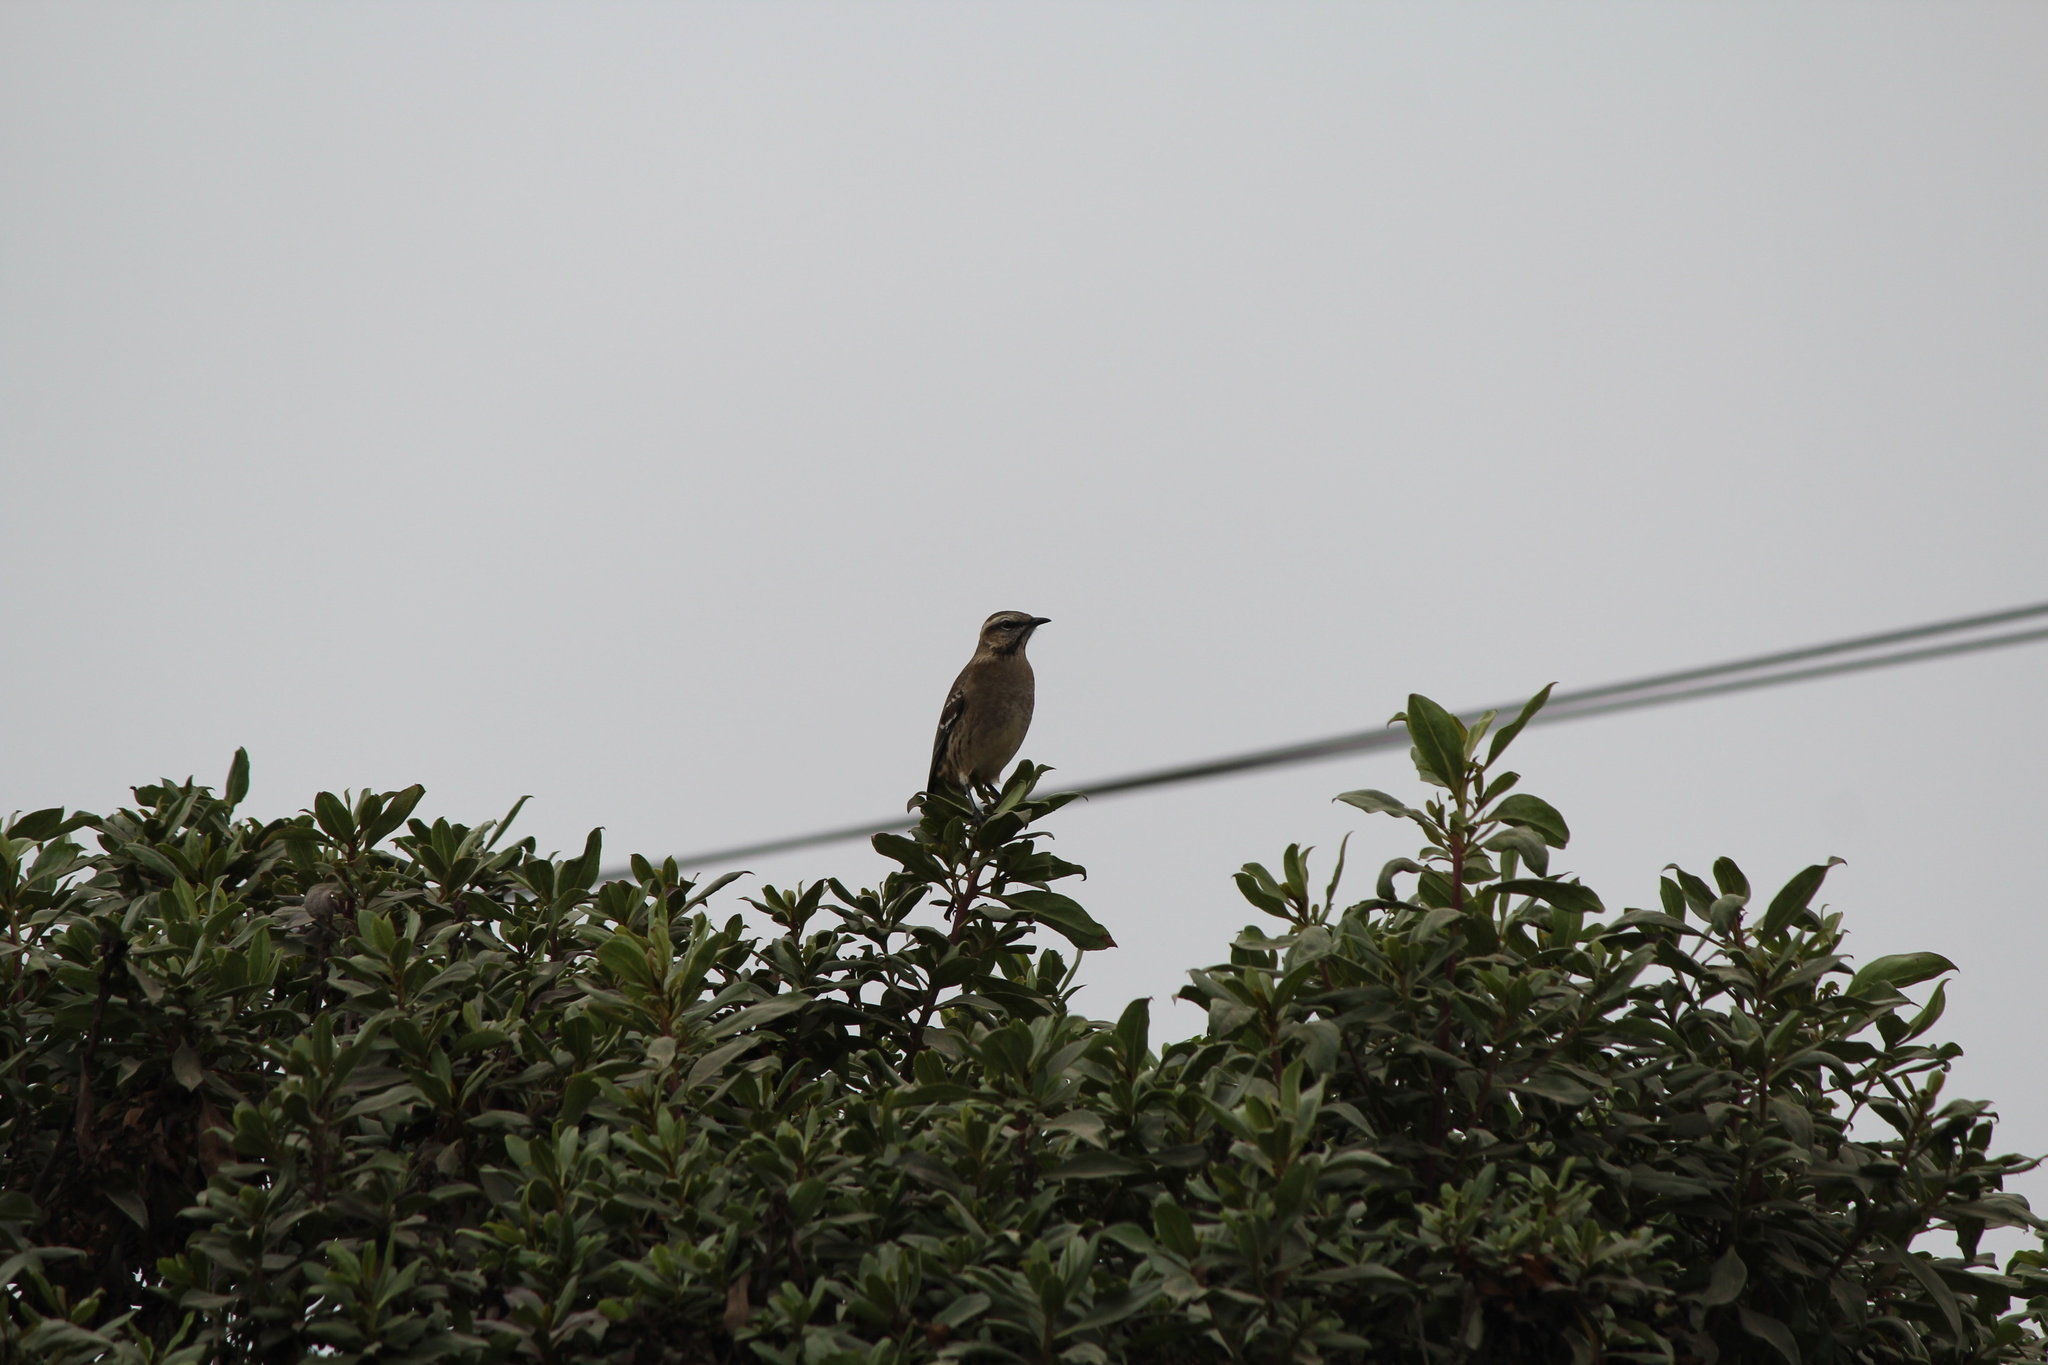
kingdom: Animalia
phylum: Chordata
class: Aves
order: Passeriformes
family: Mimidae
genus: Mimus
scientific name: Mimus thenca
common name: Chilean mockingbird
